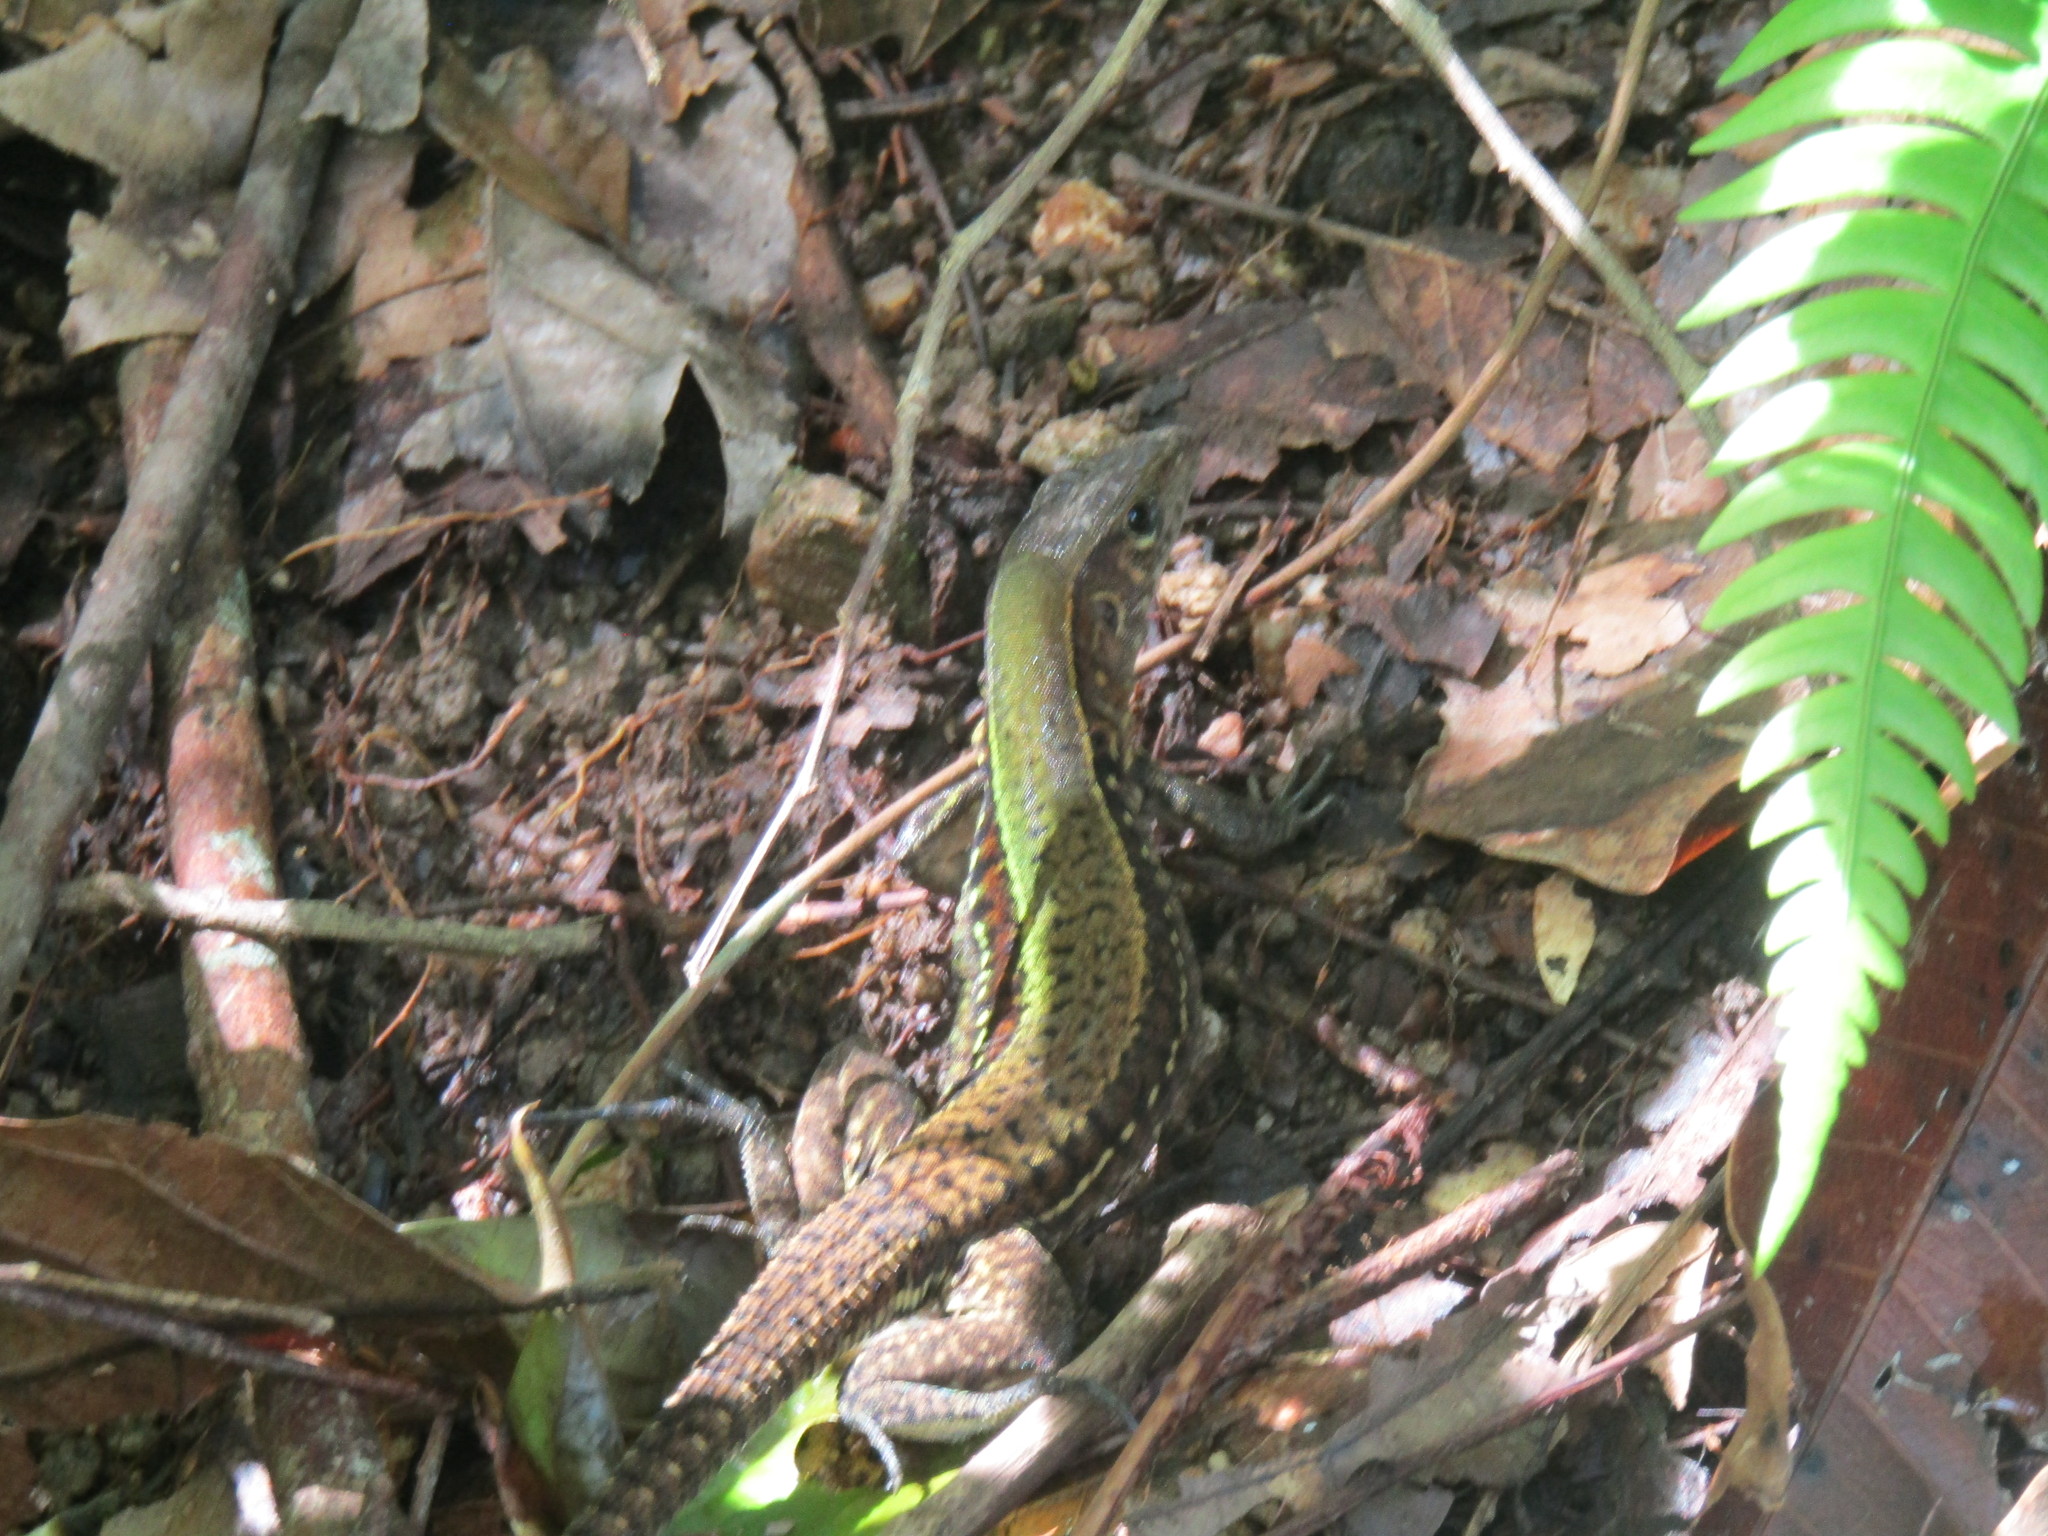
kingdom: Animalia
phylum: Chordata
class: Squamata
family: Teiidae
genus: Holcosus
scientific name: Holcosus undulatus
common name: Rainbow ameiva
